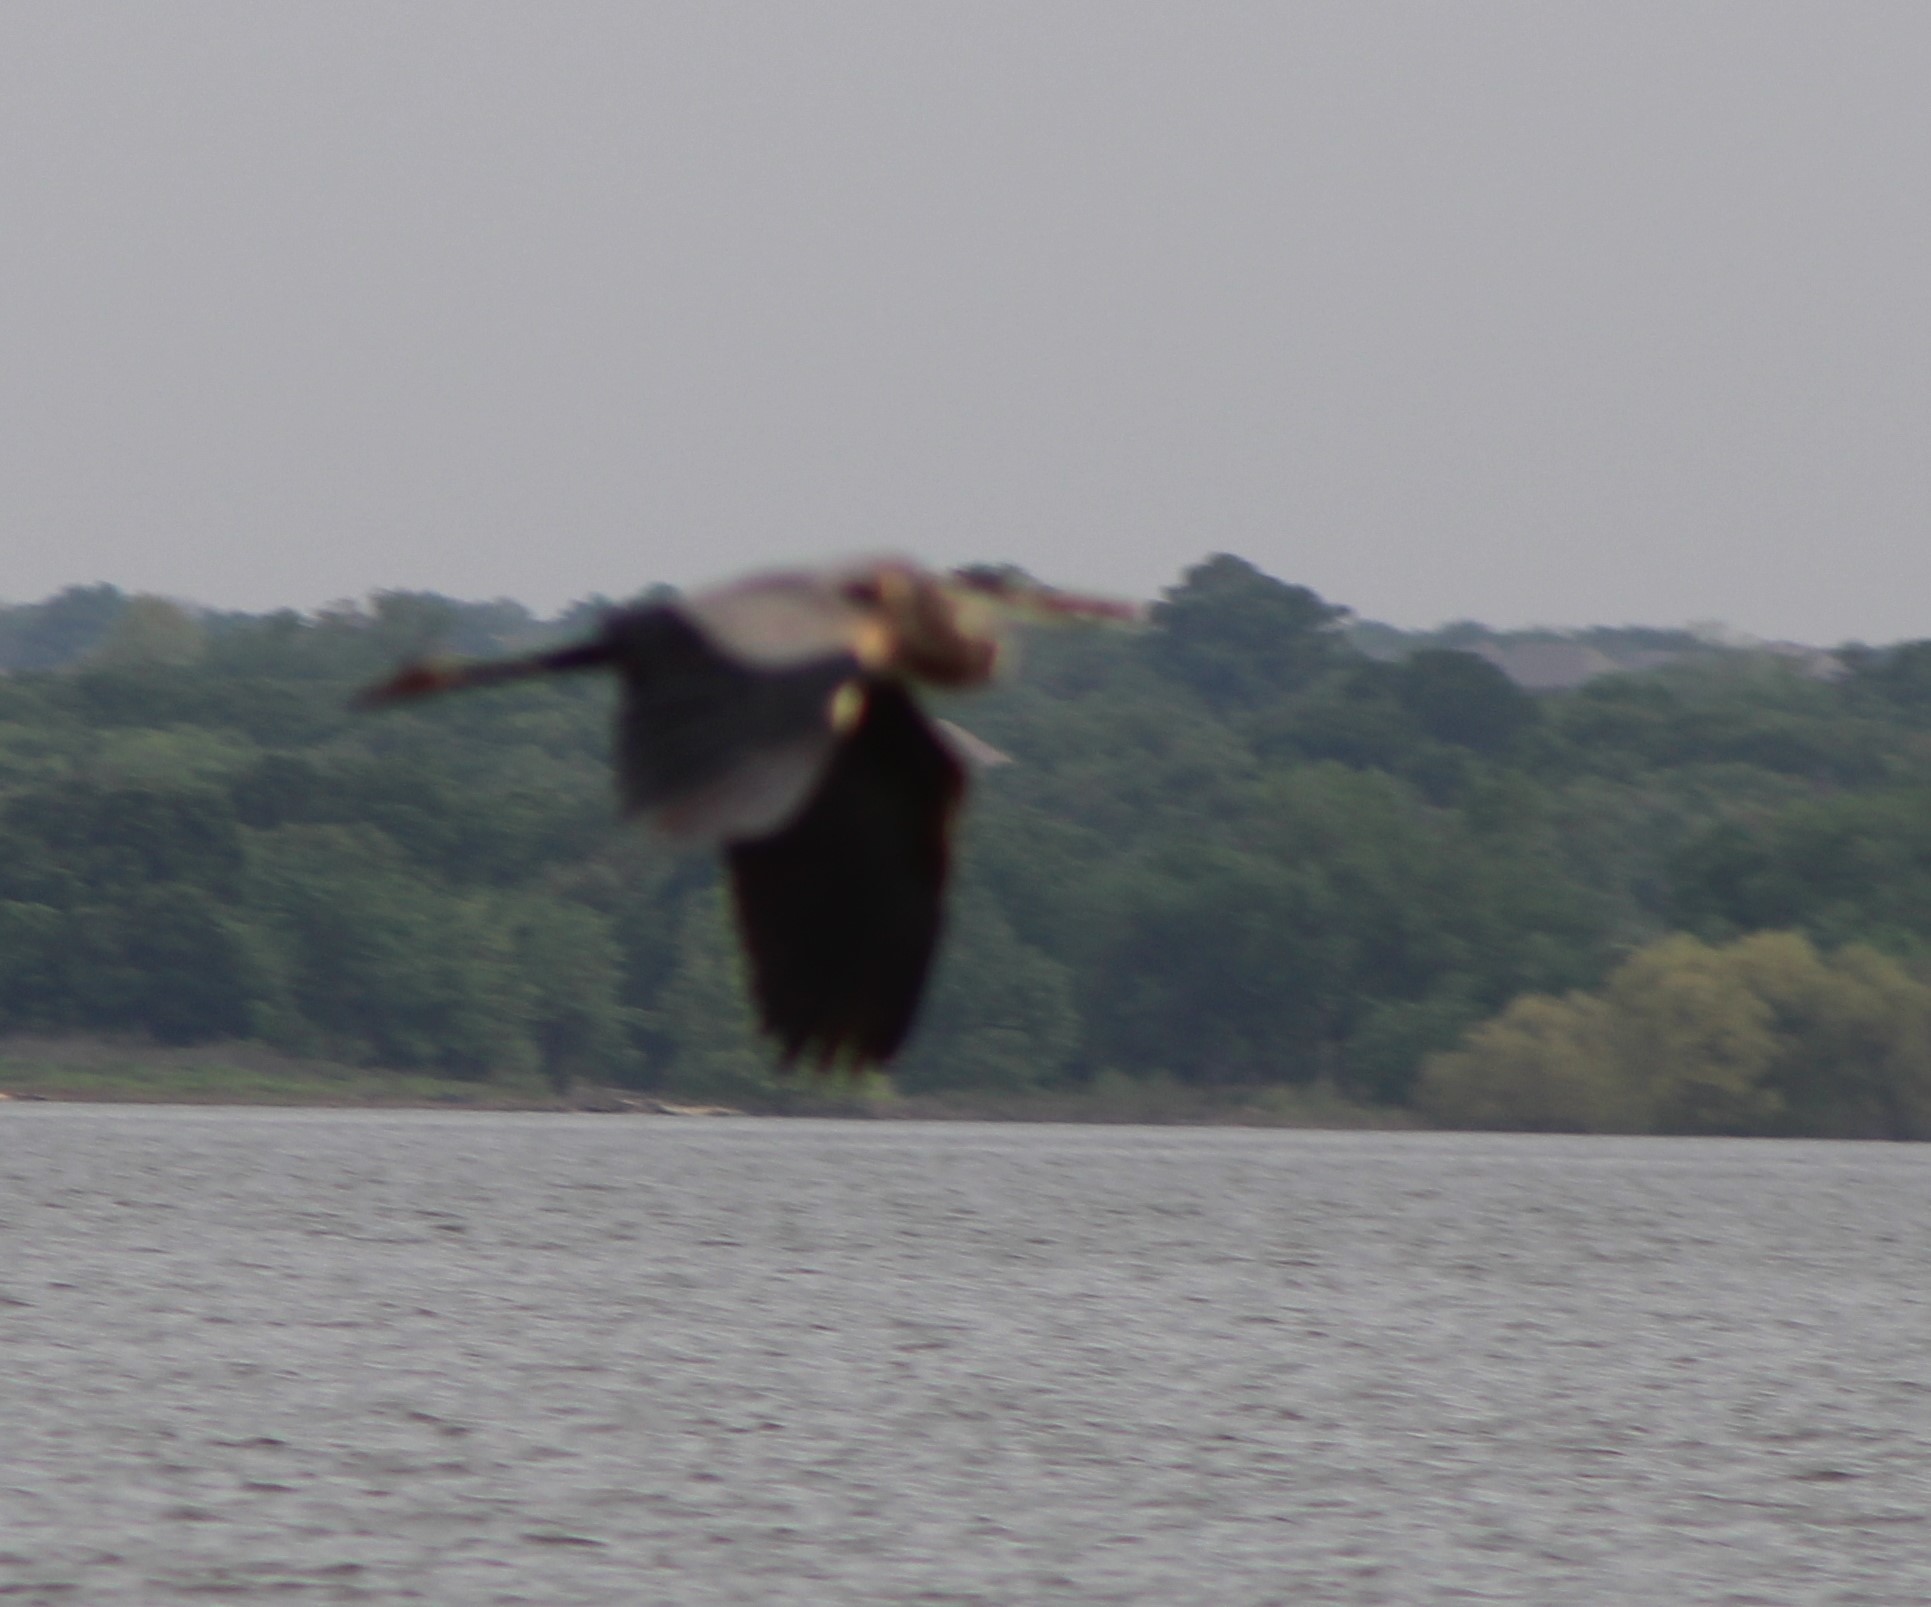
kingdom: Animalia
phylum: Chordata
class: Aves
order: Pelecaniformes
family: Ardeidae
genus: Ardea
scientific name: Ardea herodias
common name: Great blue heron
